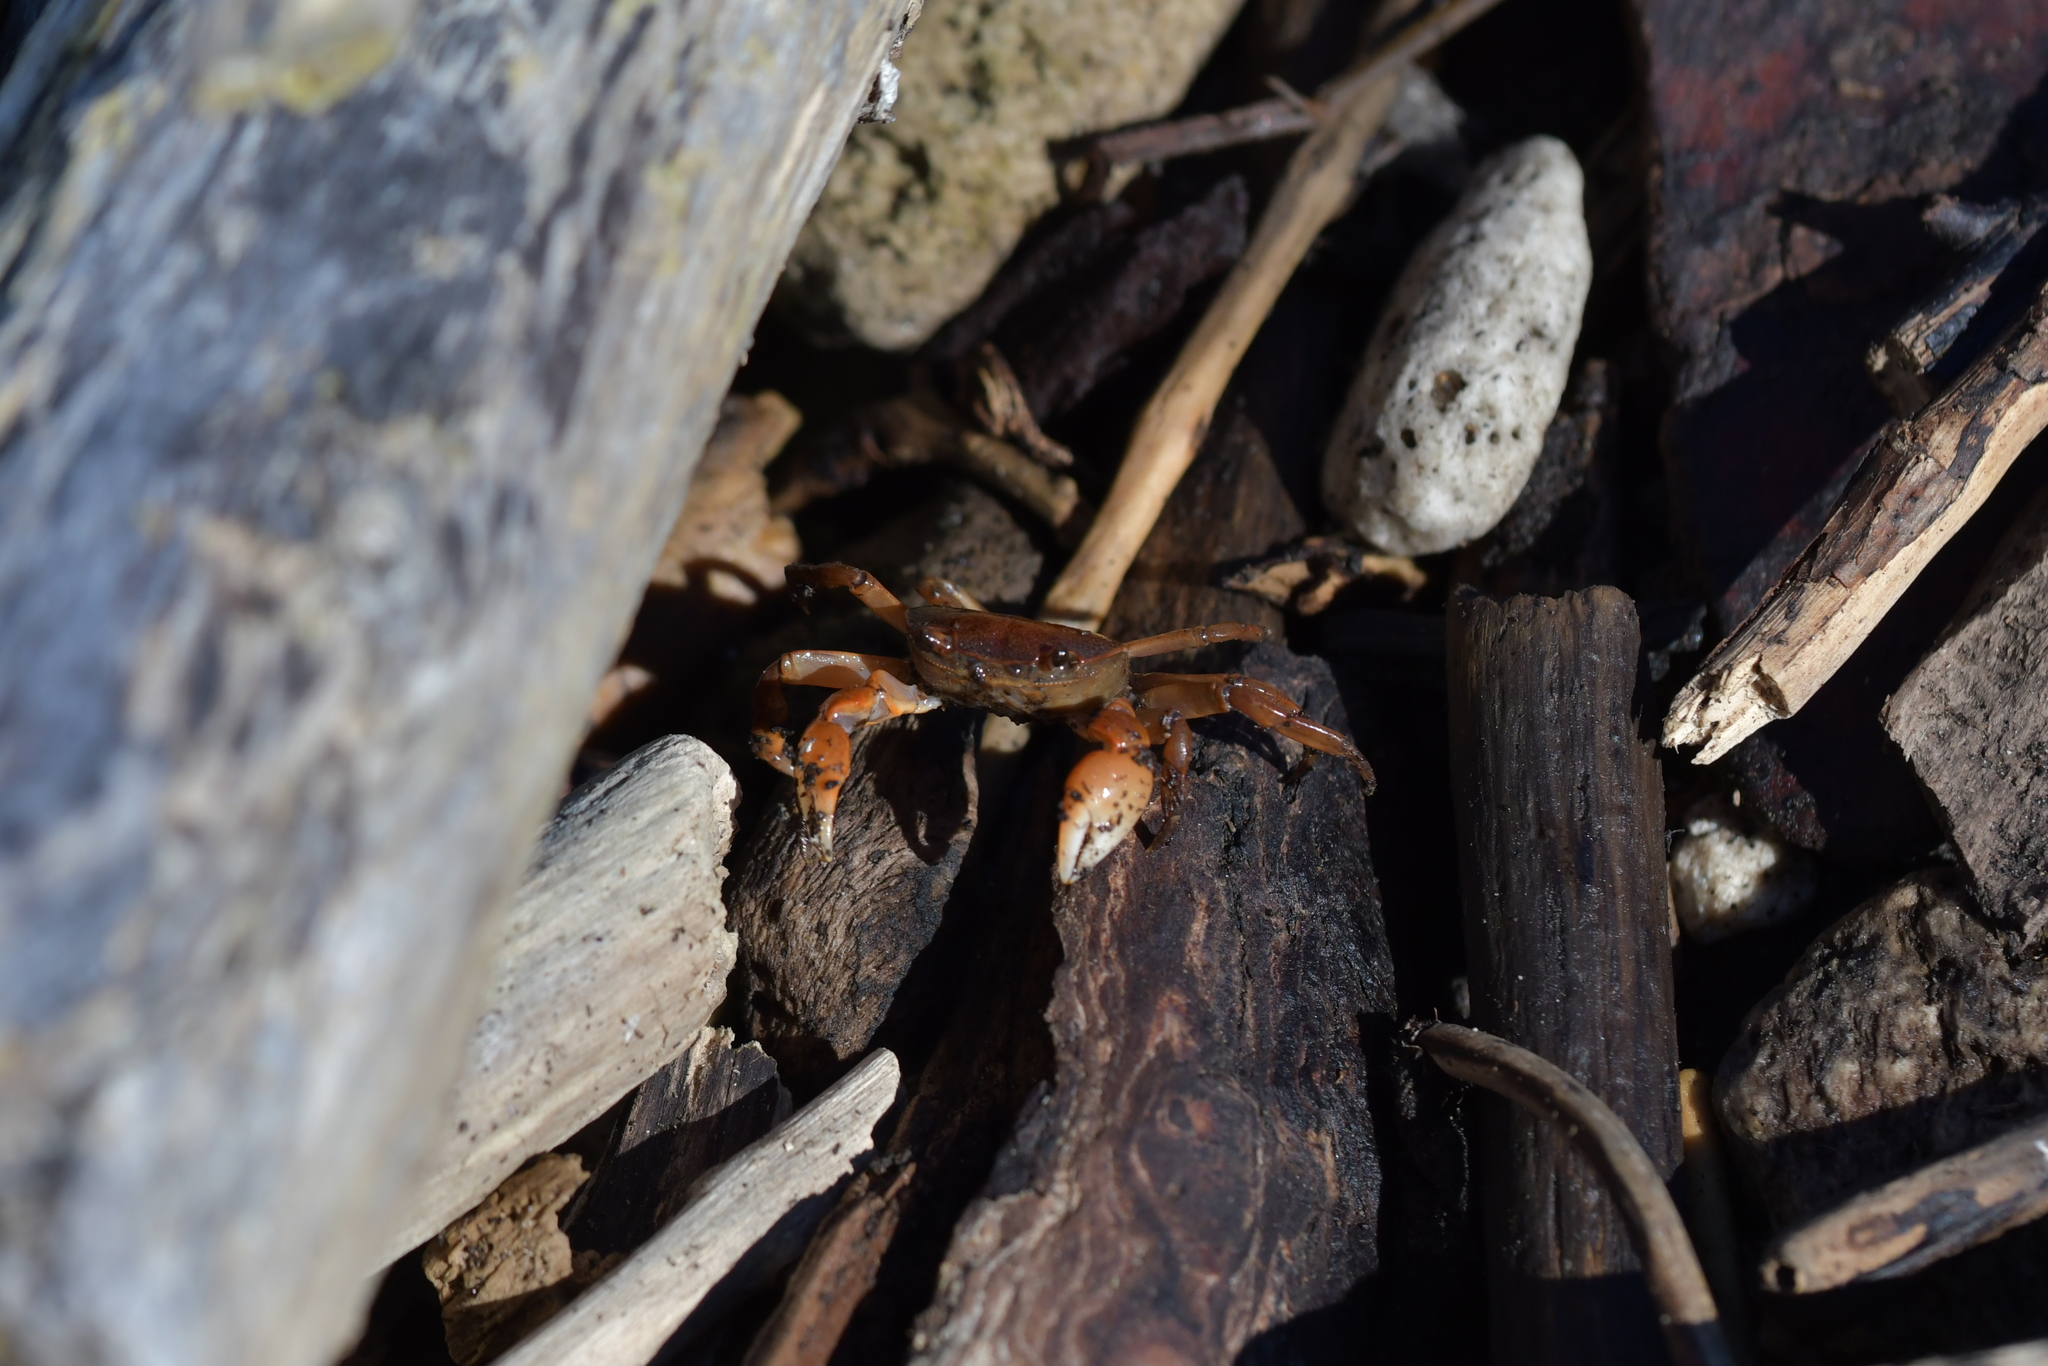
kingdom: Animalia
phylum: Arthropoda
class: Malacostraca
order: Decapoda
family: Varunidae
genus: Cyclograpsus
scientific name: Cyclograpsus lavauxi
